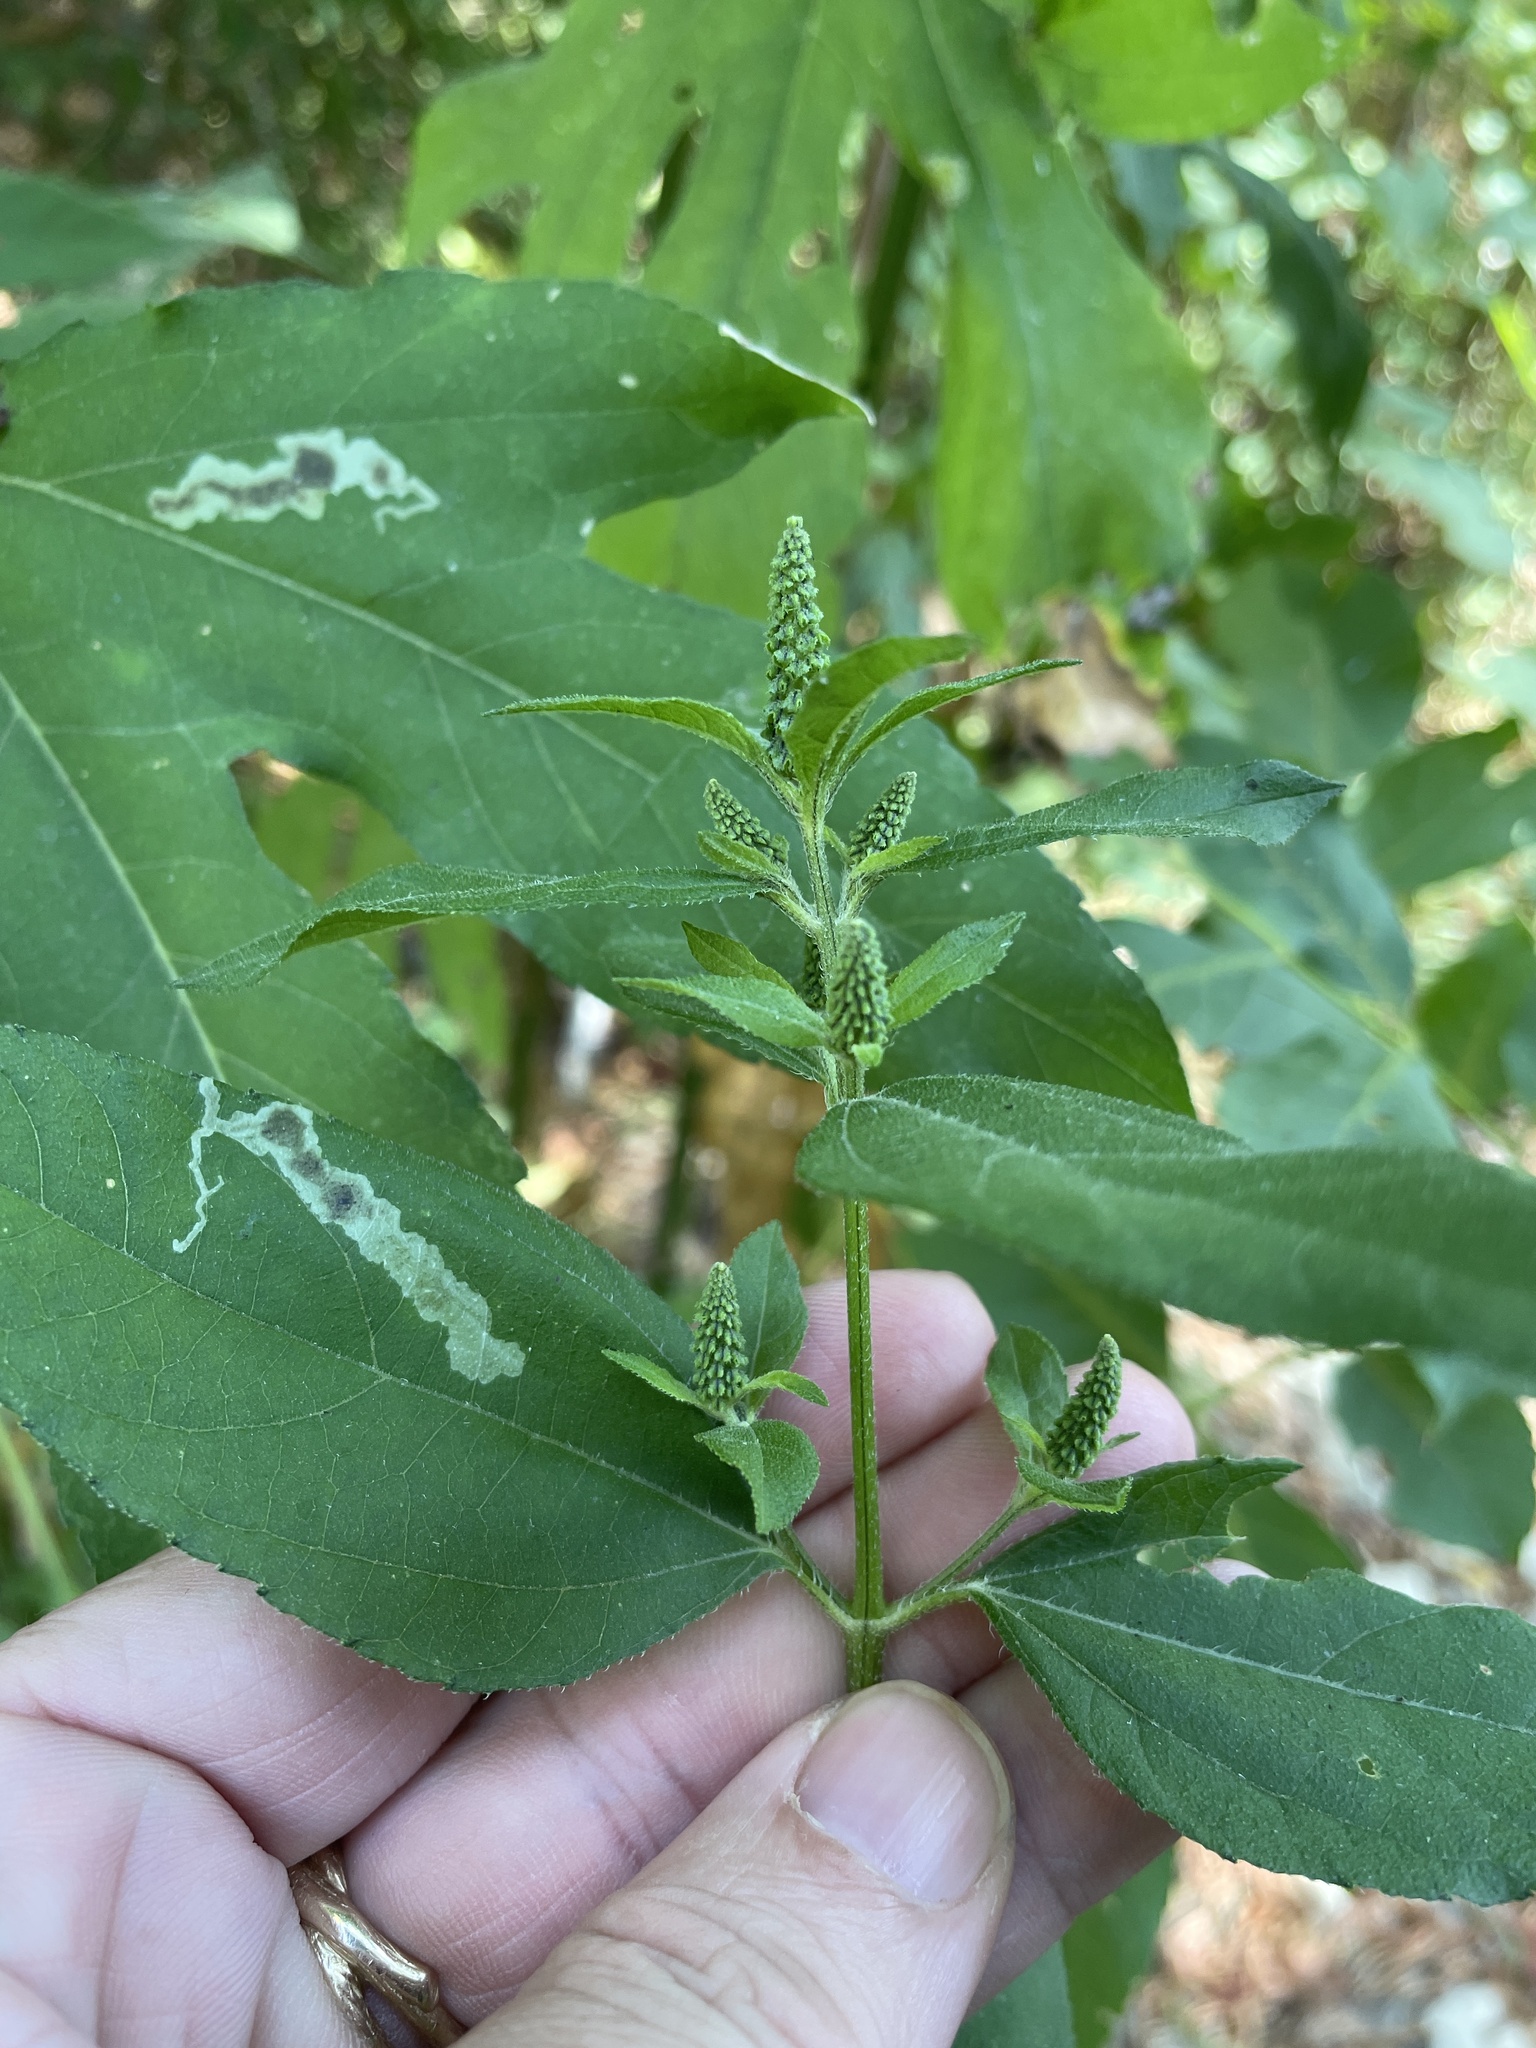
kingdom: Plantae
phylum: Tracheophyta
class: Magnoliopsida
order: Asterales
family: Asteraceae
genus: Ambrosia
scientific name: Ambrosia trifida
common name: Giant ragweed
